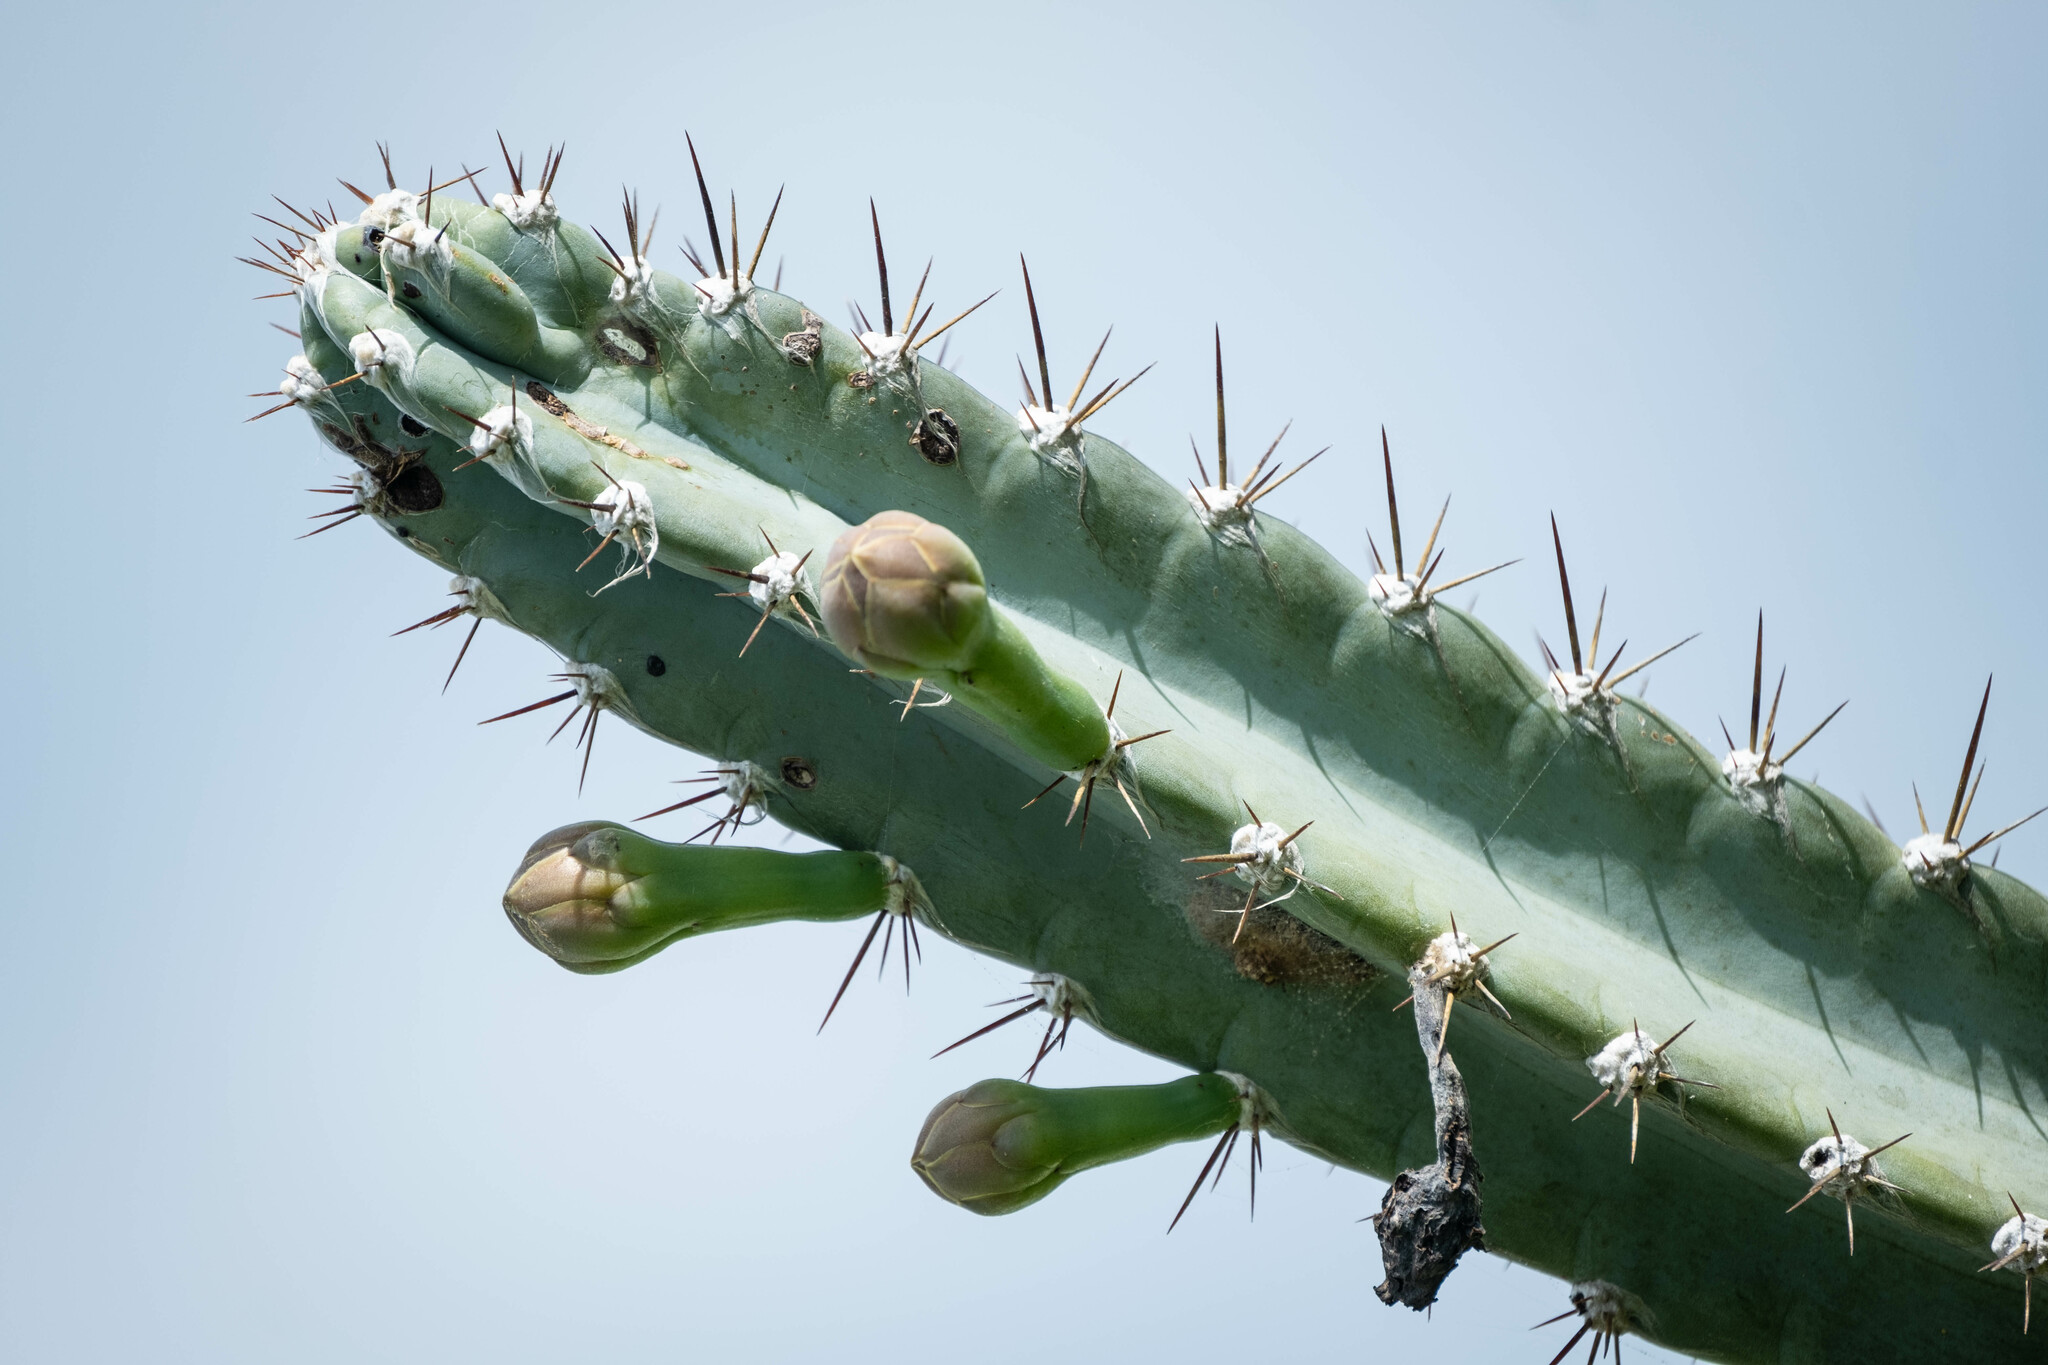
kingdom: Plantae
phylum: Tracheophyta
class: Magnoliopsida
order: Caryophyllales
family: Cactaceae
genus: Cereus
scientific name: Cereus horrispinus
